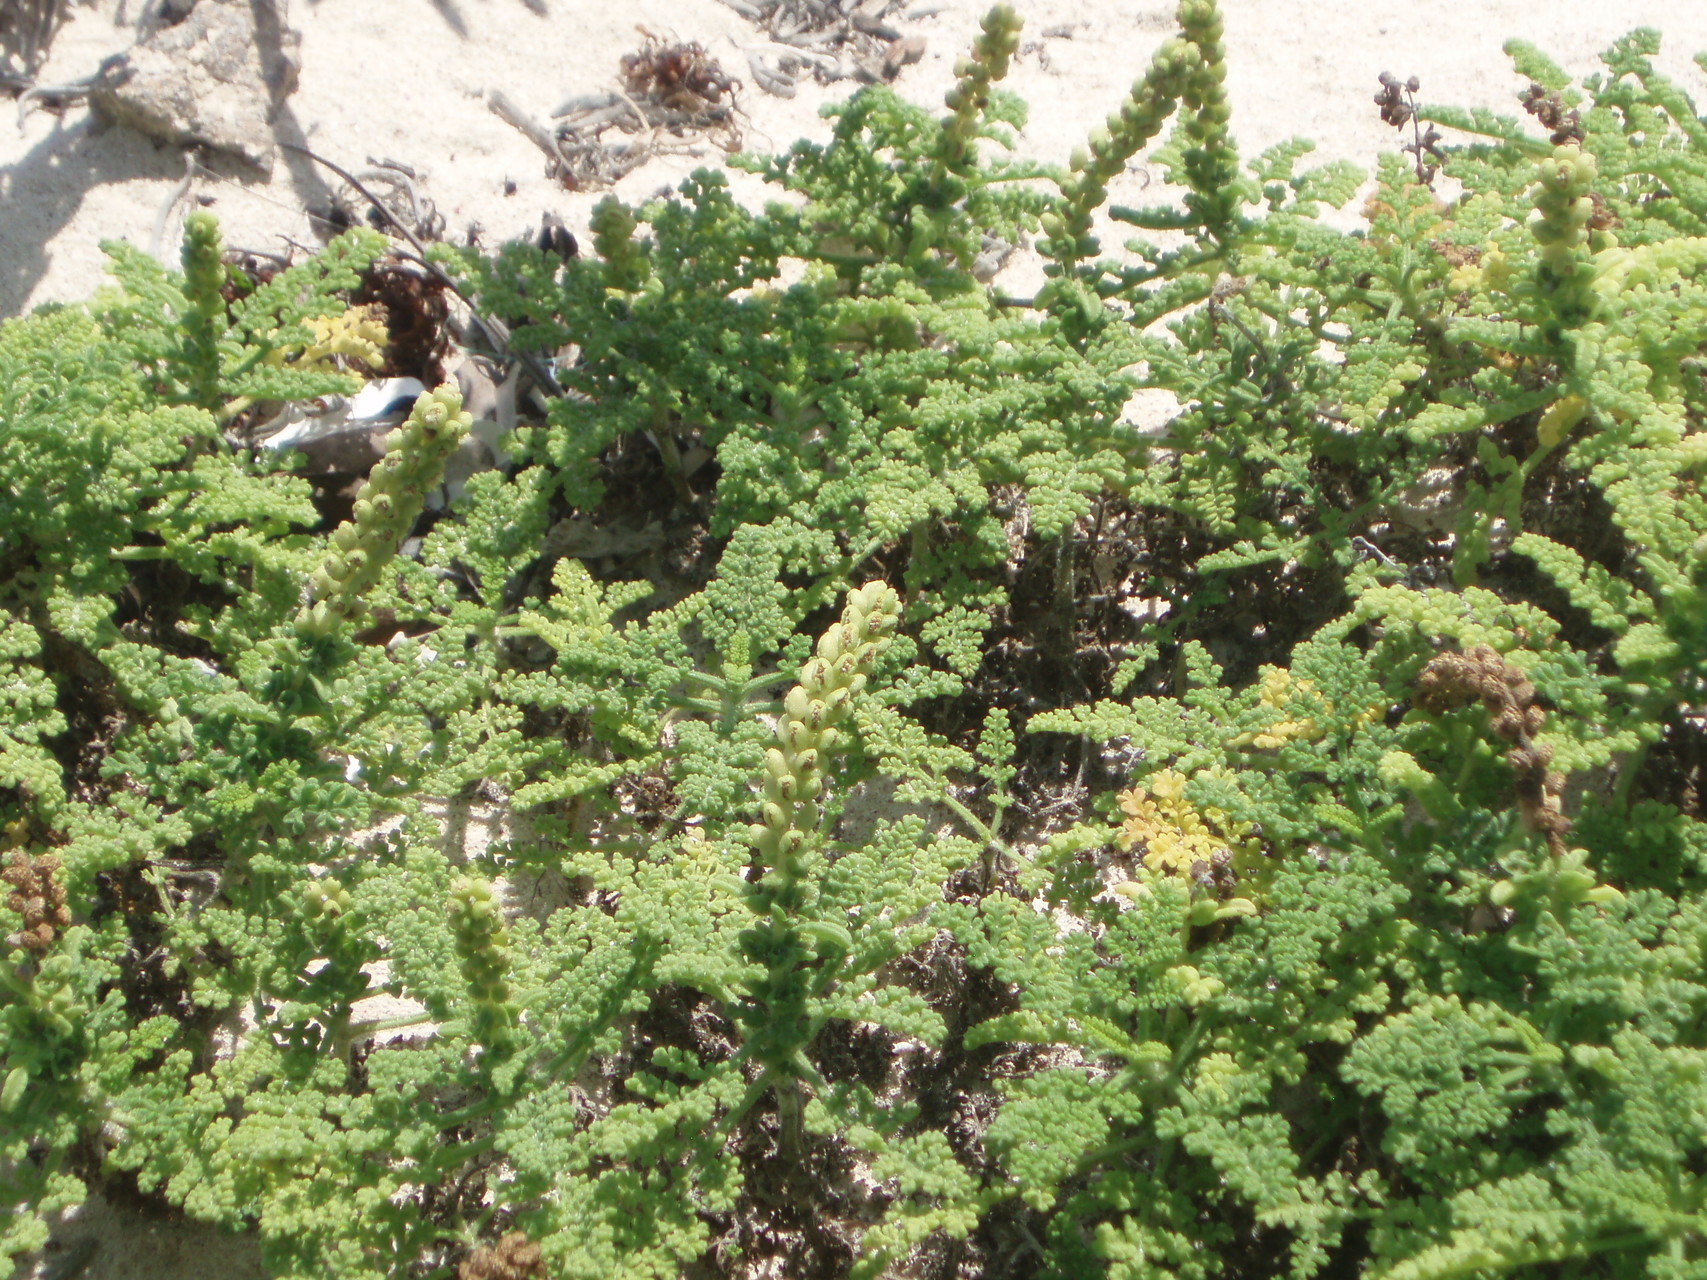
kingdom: Plantae
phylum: Tracheophyta
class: Magnoliopsida
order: Asterales
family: Asteraceae
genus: Ambrosia
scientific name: Ambrosia hispida
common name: Coastal ragweed
